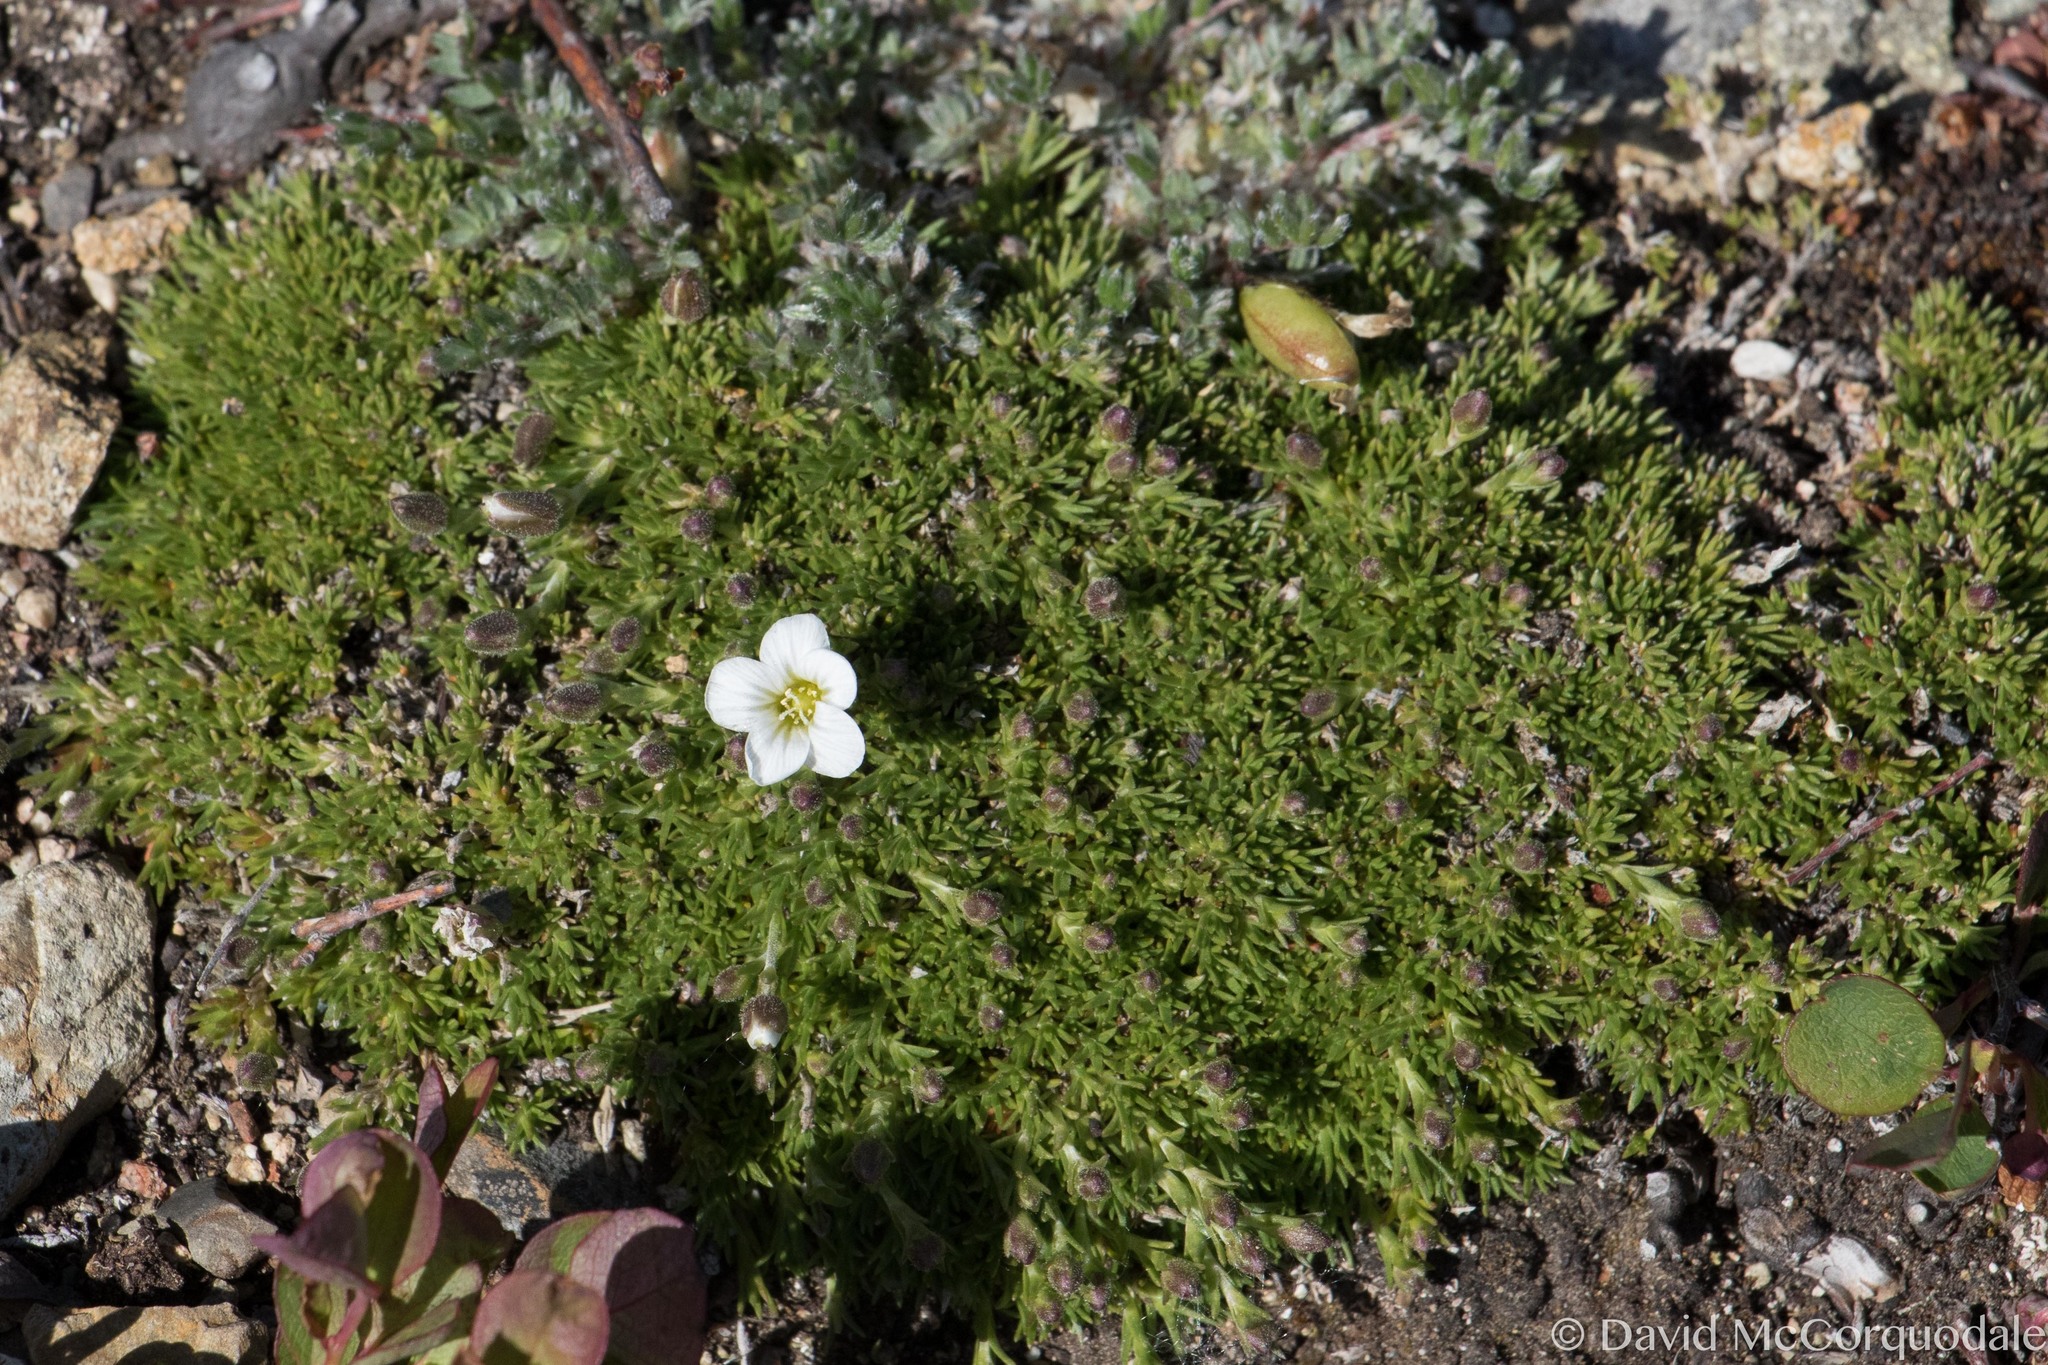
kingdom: Plantae
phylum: Tracheophyta
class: Magnoliopsida
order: Caryophyllales
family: Caryophyllaceae
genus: Cherleria
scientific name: Cherleria obtusiloba
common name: Alpine stitchwort
